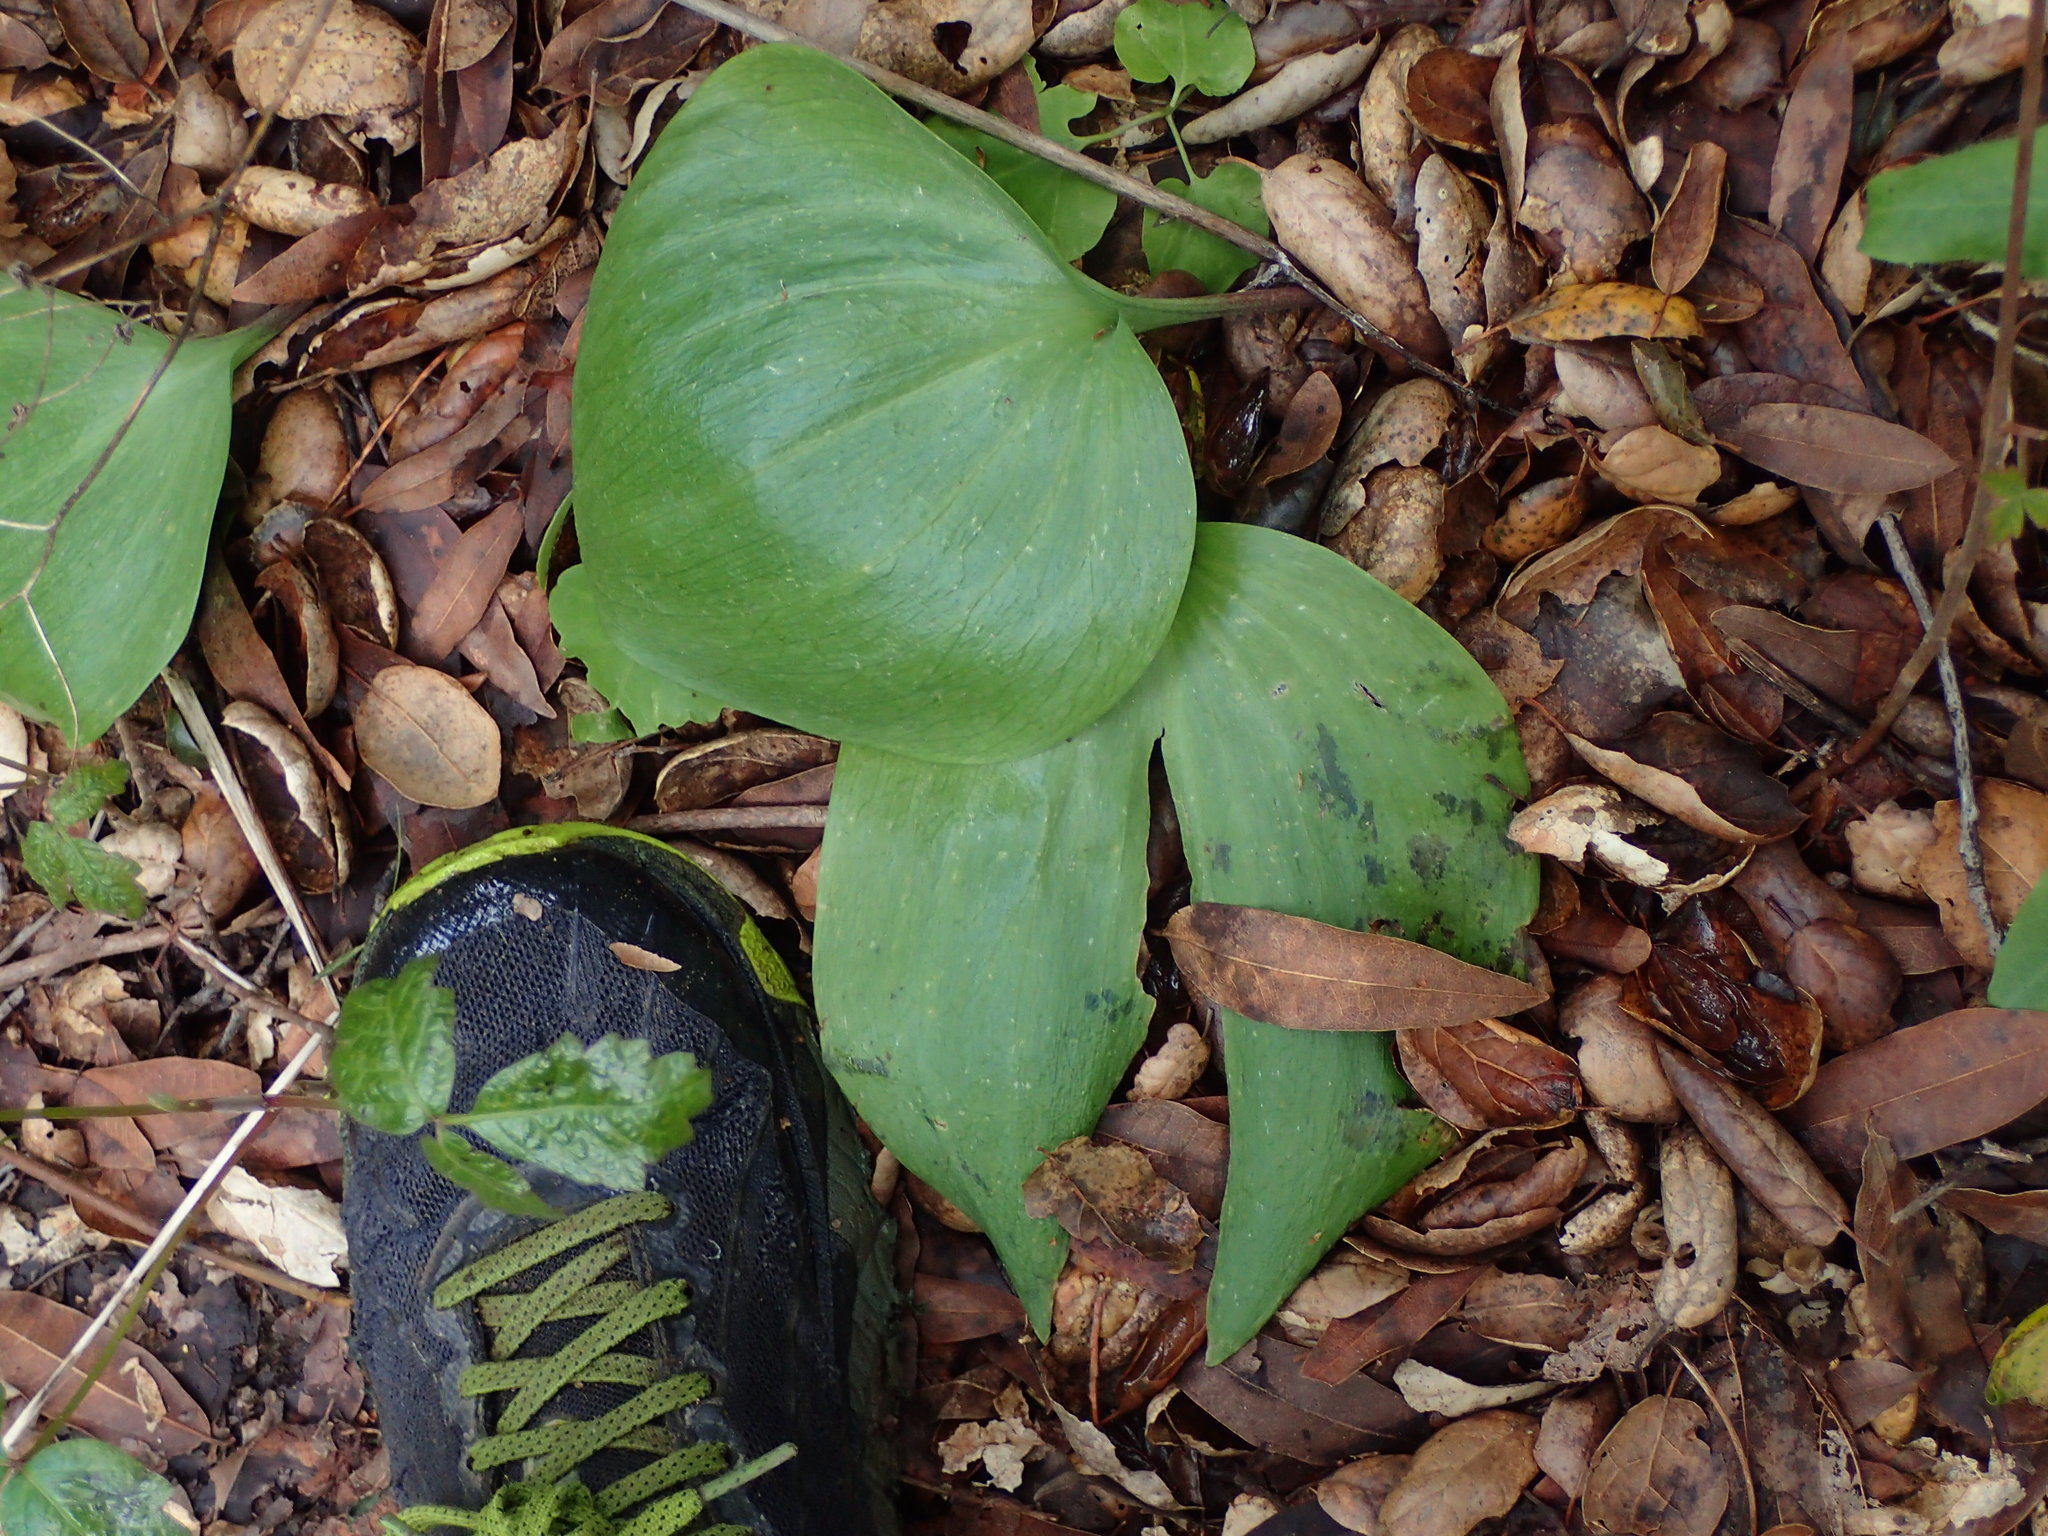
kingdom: Plantae
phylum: Tracheophyta
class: Liliopsida
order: Liliales
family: Liliaceae
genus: Fritillaria
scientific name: Fritillaria ojaiensis
